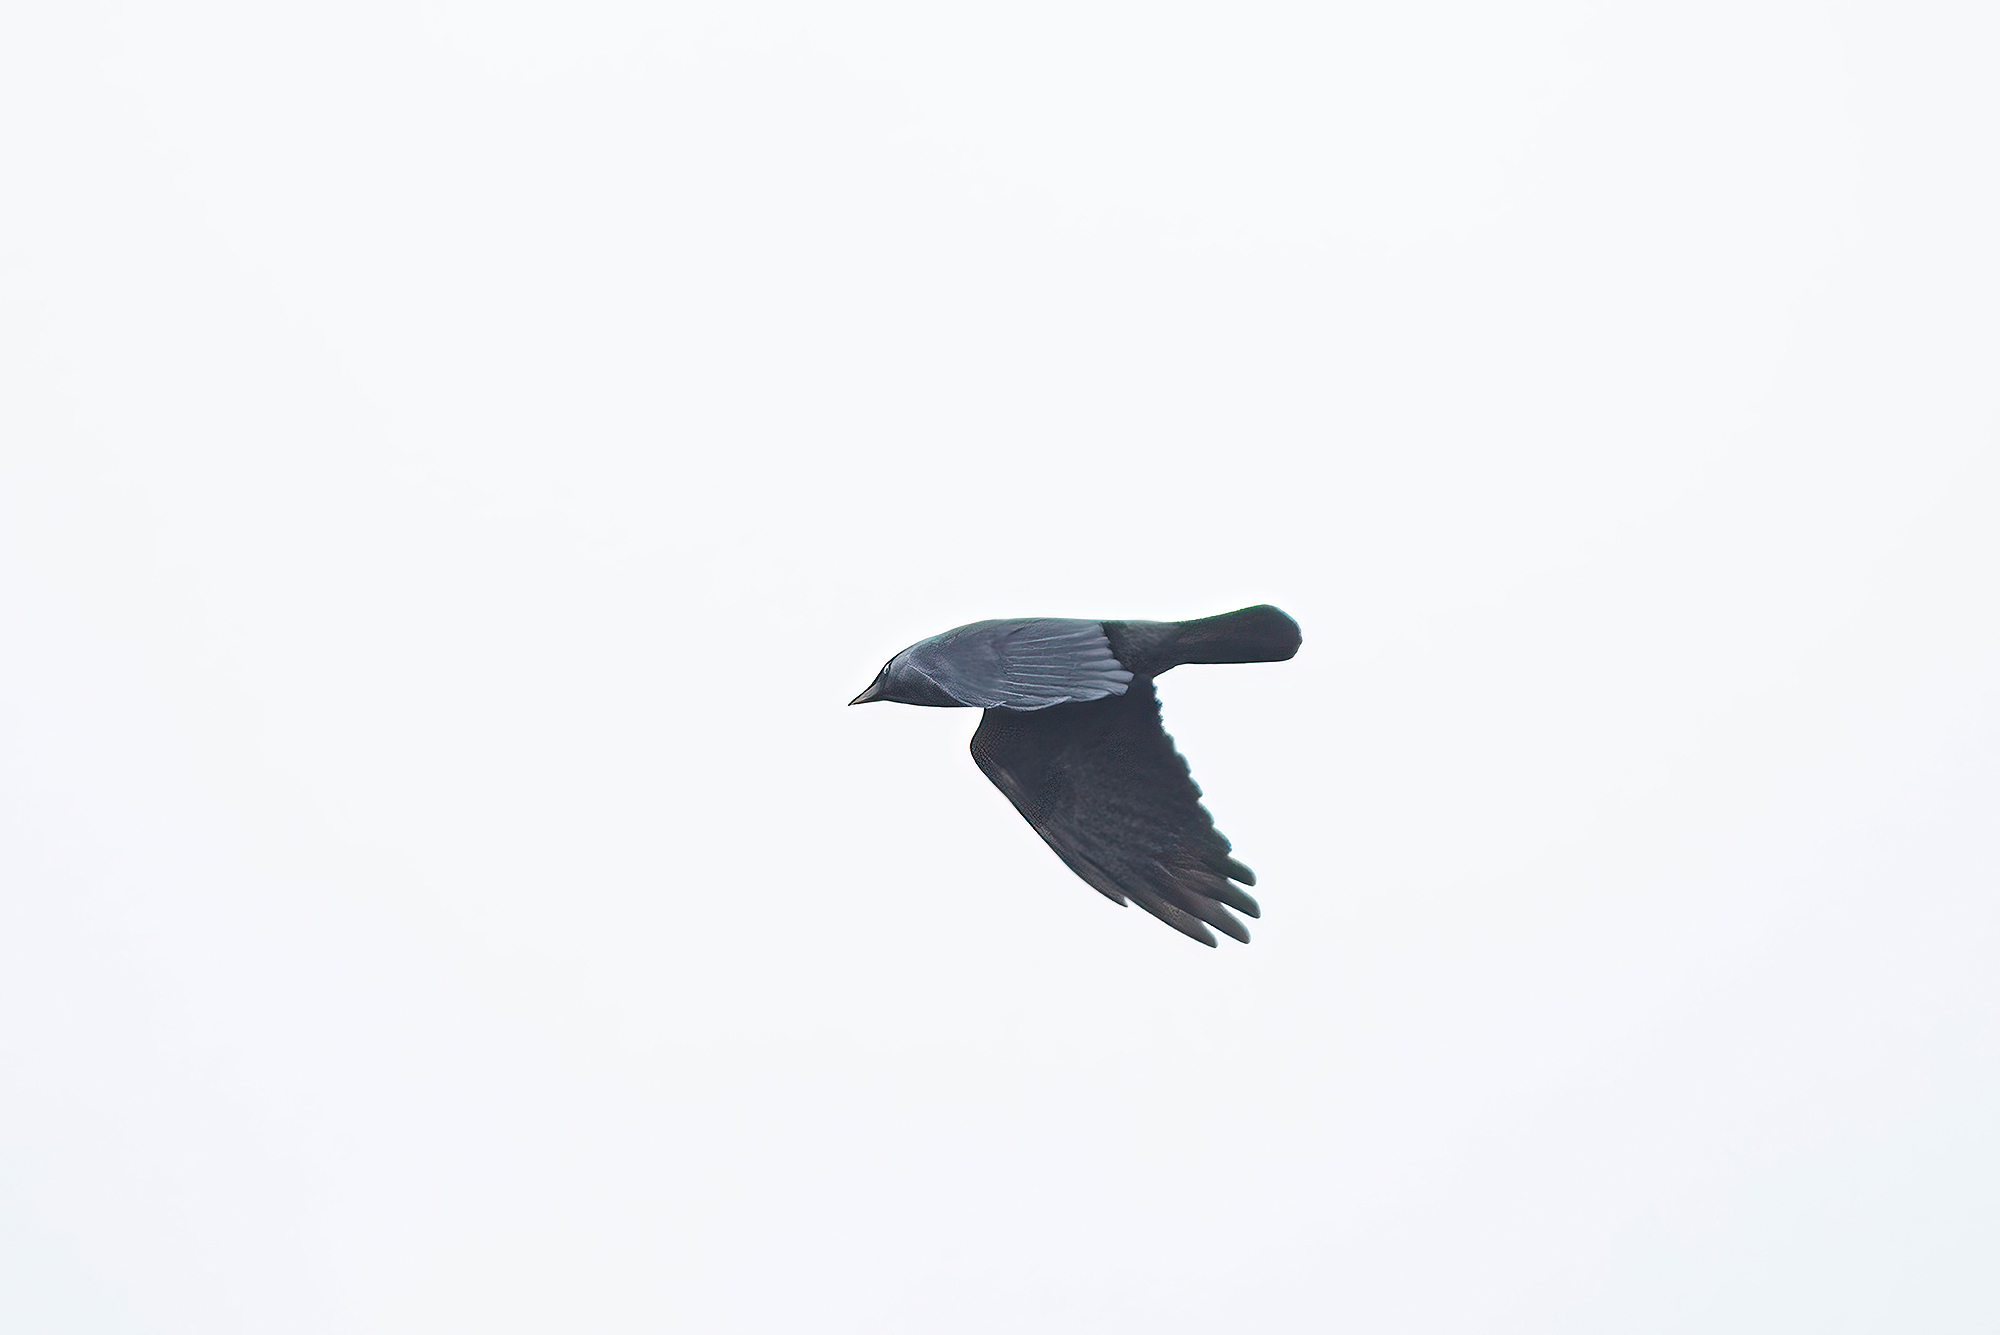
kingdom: Animalia
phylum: Chordata
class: Aves
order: Passeriformes
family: Corvidae
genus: Coloeus
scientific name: Coloeus monedula
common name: Western jackdaw
